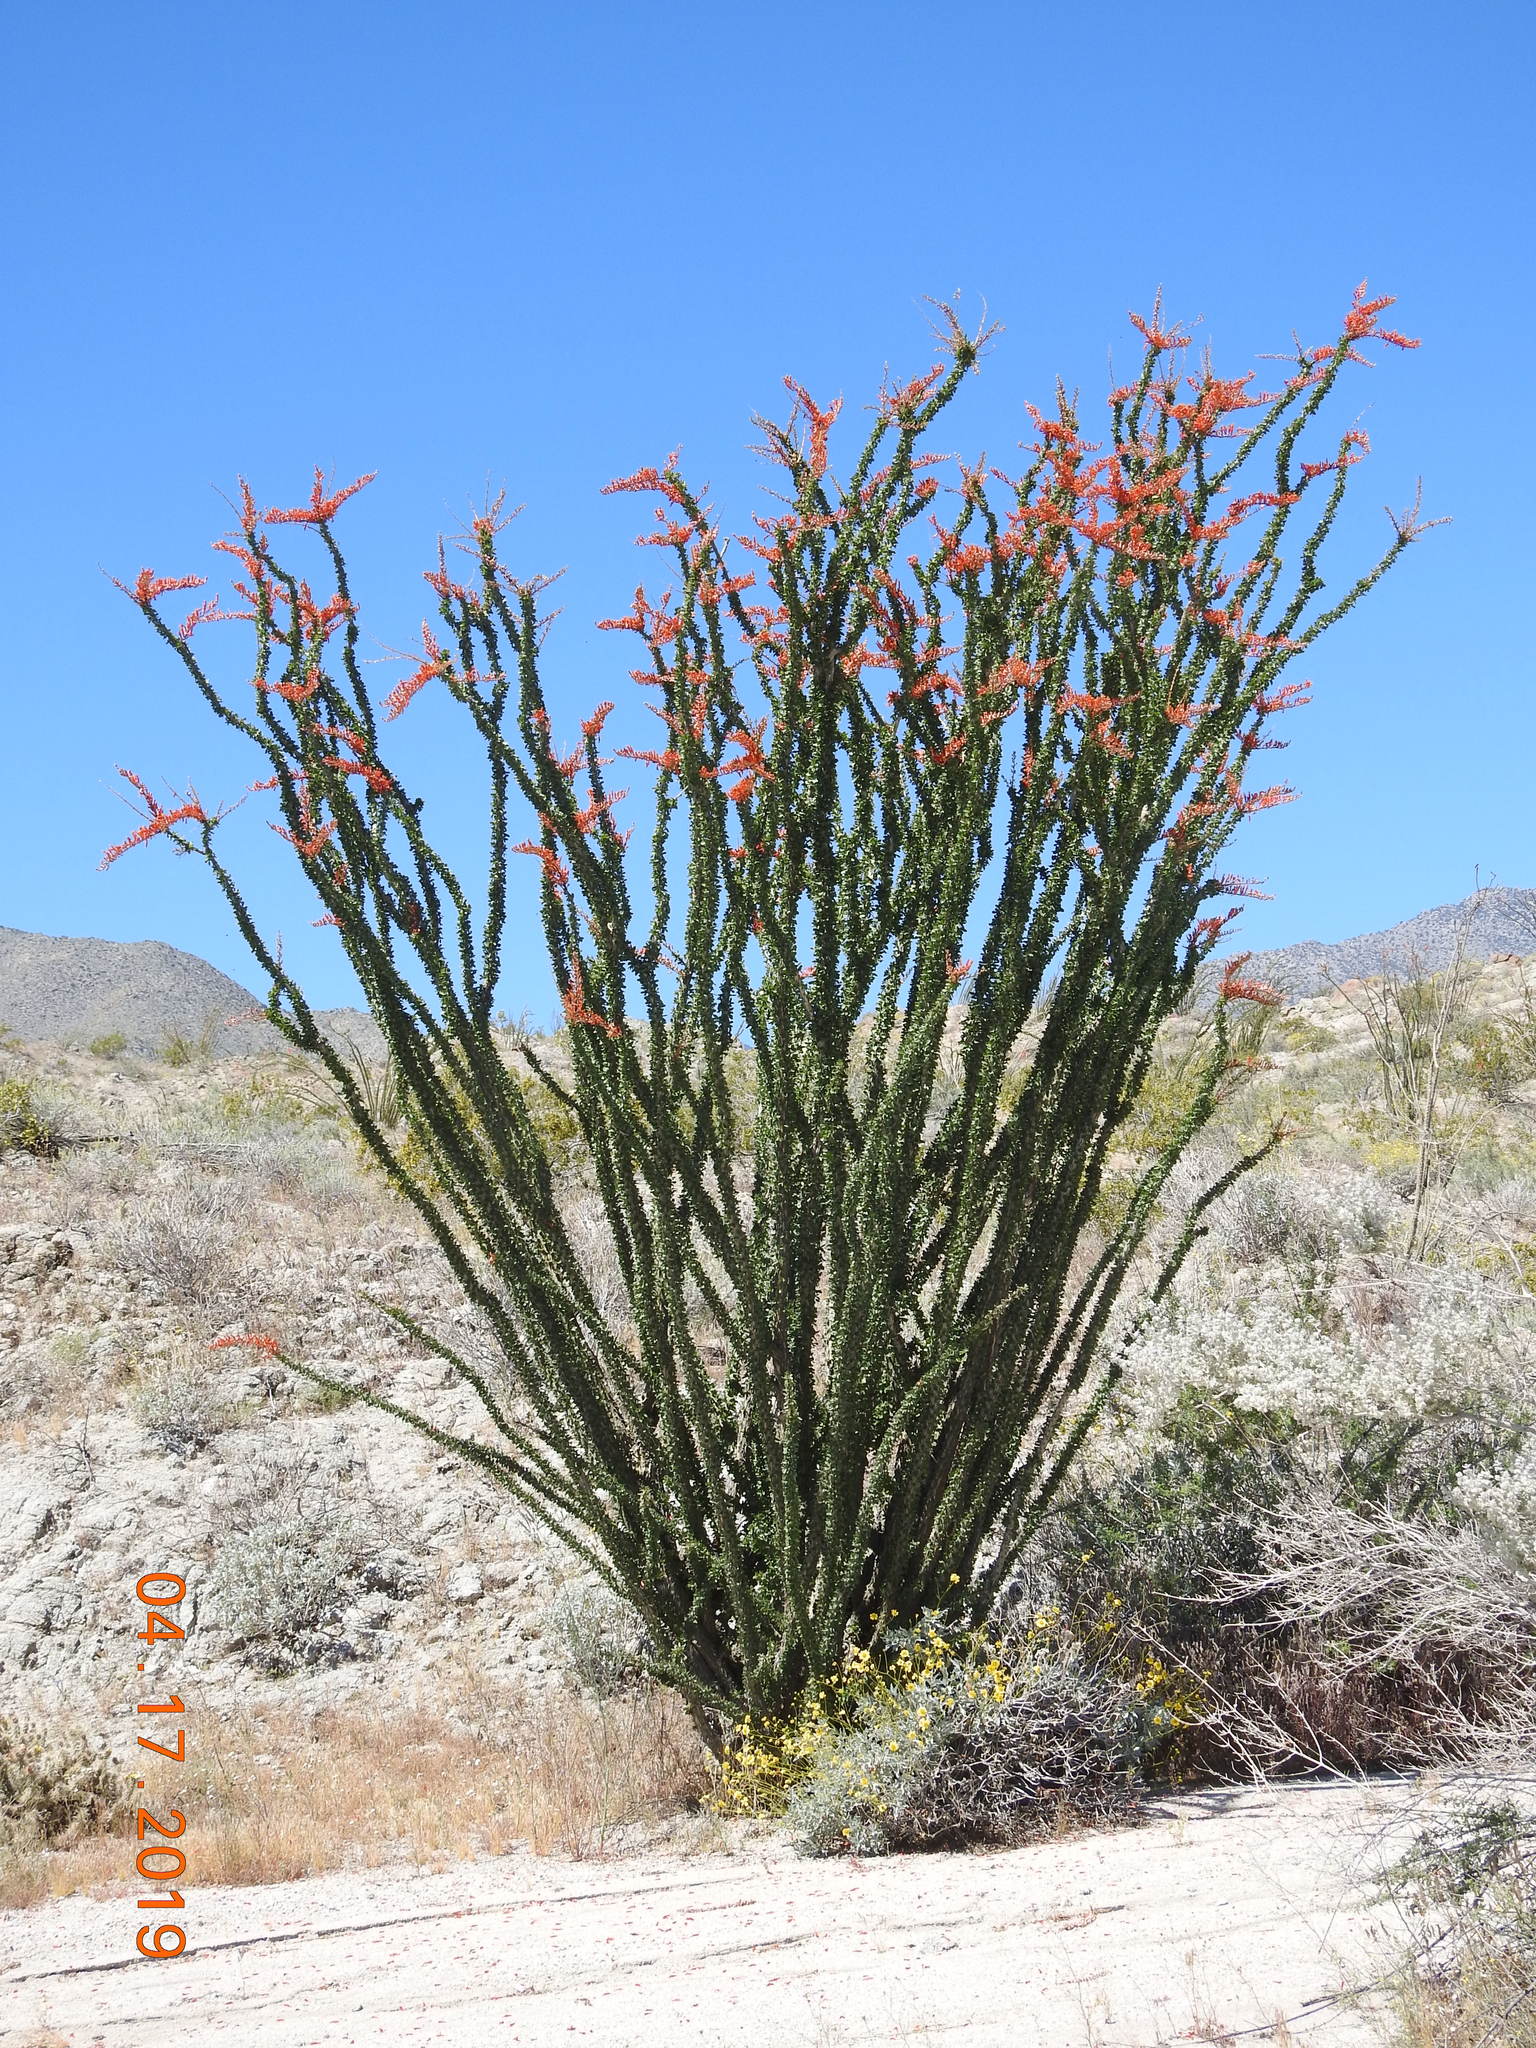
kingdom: Plantae
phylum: Tracheophyta
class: Magnoliopsida
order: Ericales
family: Fouquieriaceae
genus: Fouquieria
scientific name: Fouquieria splendens
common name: Vine-cactus
